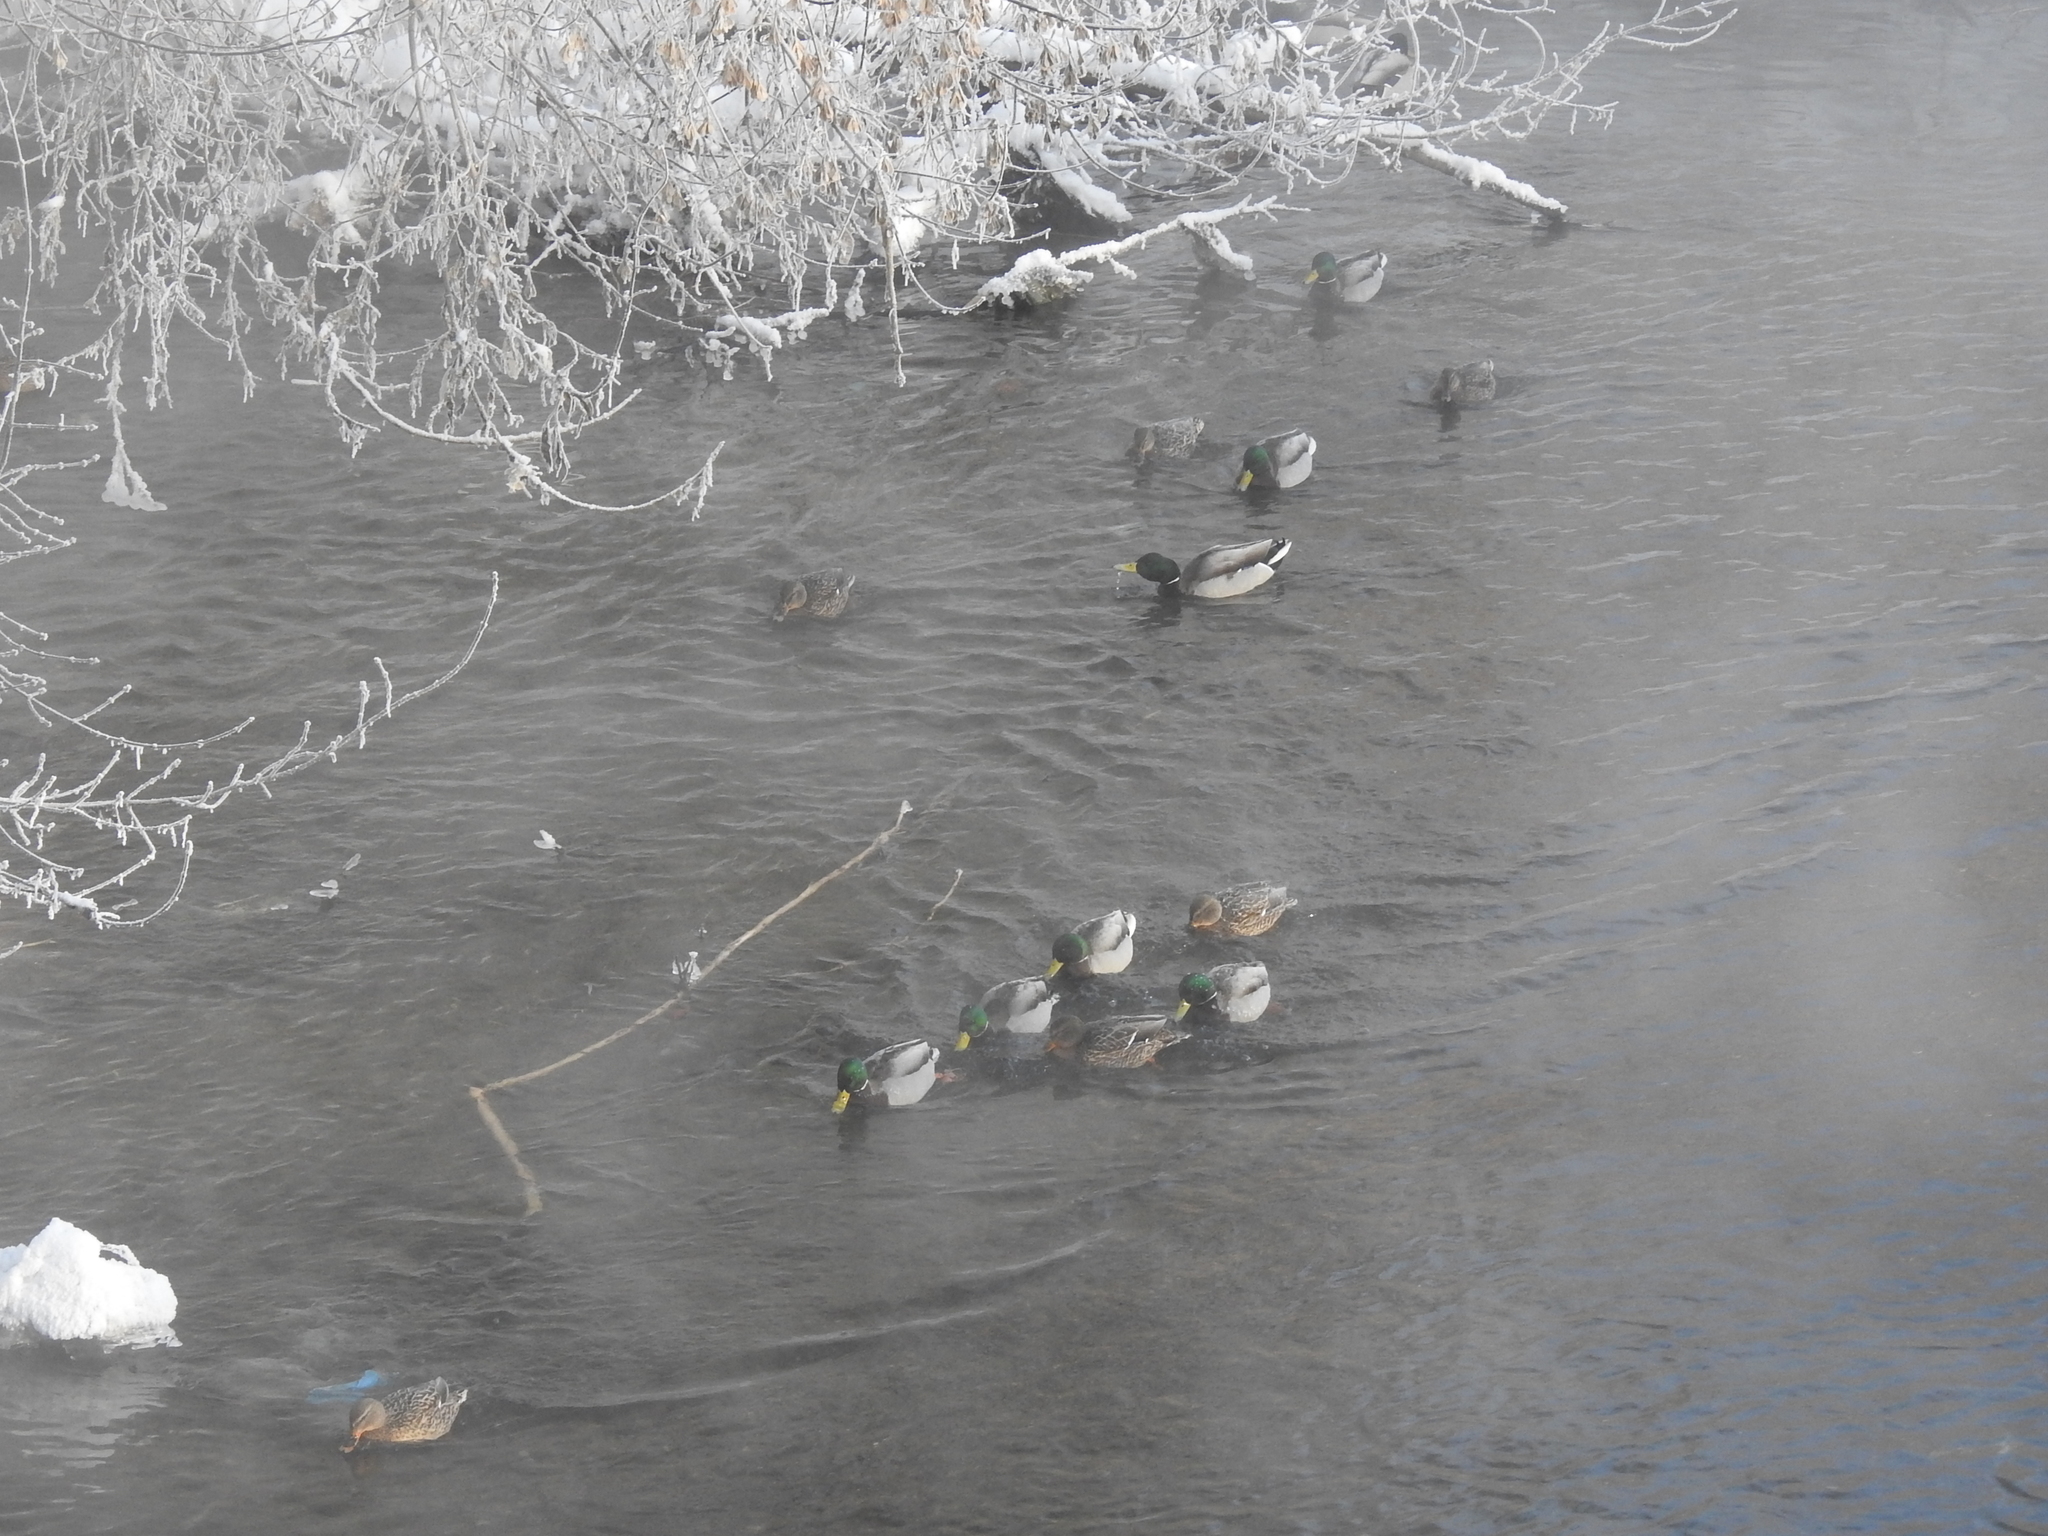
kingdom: Animalia
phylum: Chordata
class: Aves
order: Anseriformes
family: Anatidae
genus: Anas
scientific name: Anas platyrhynchos
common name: Mallard
